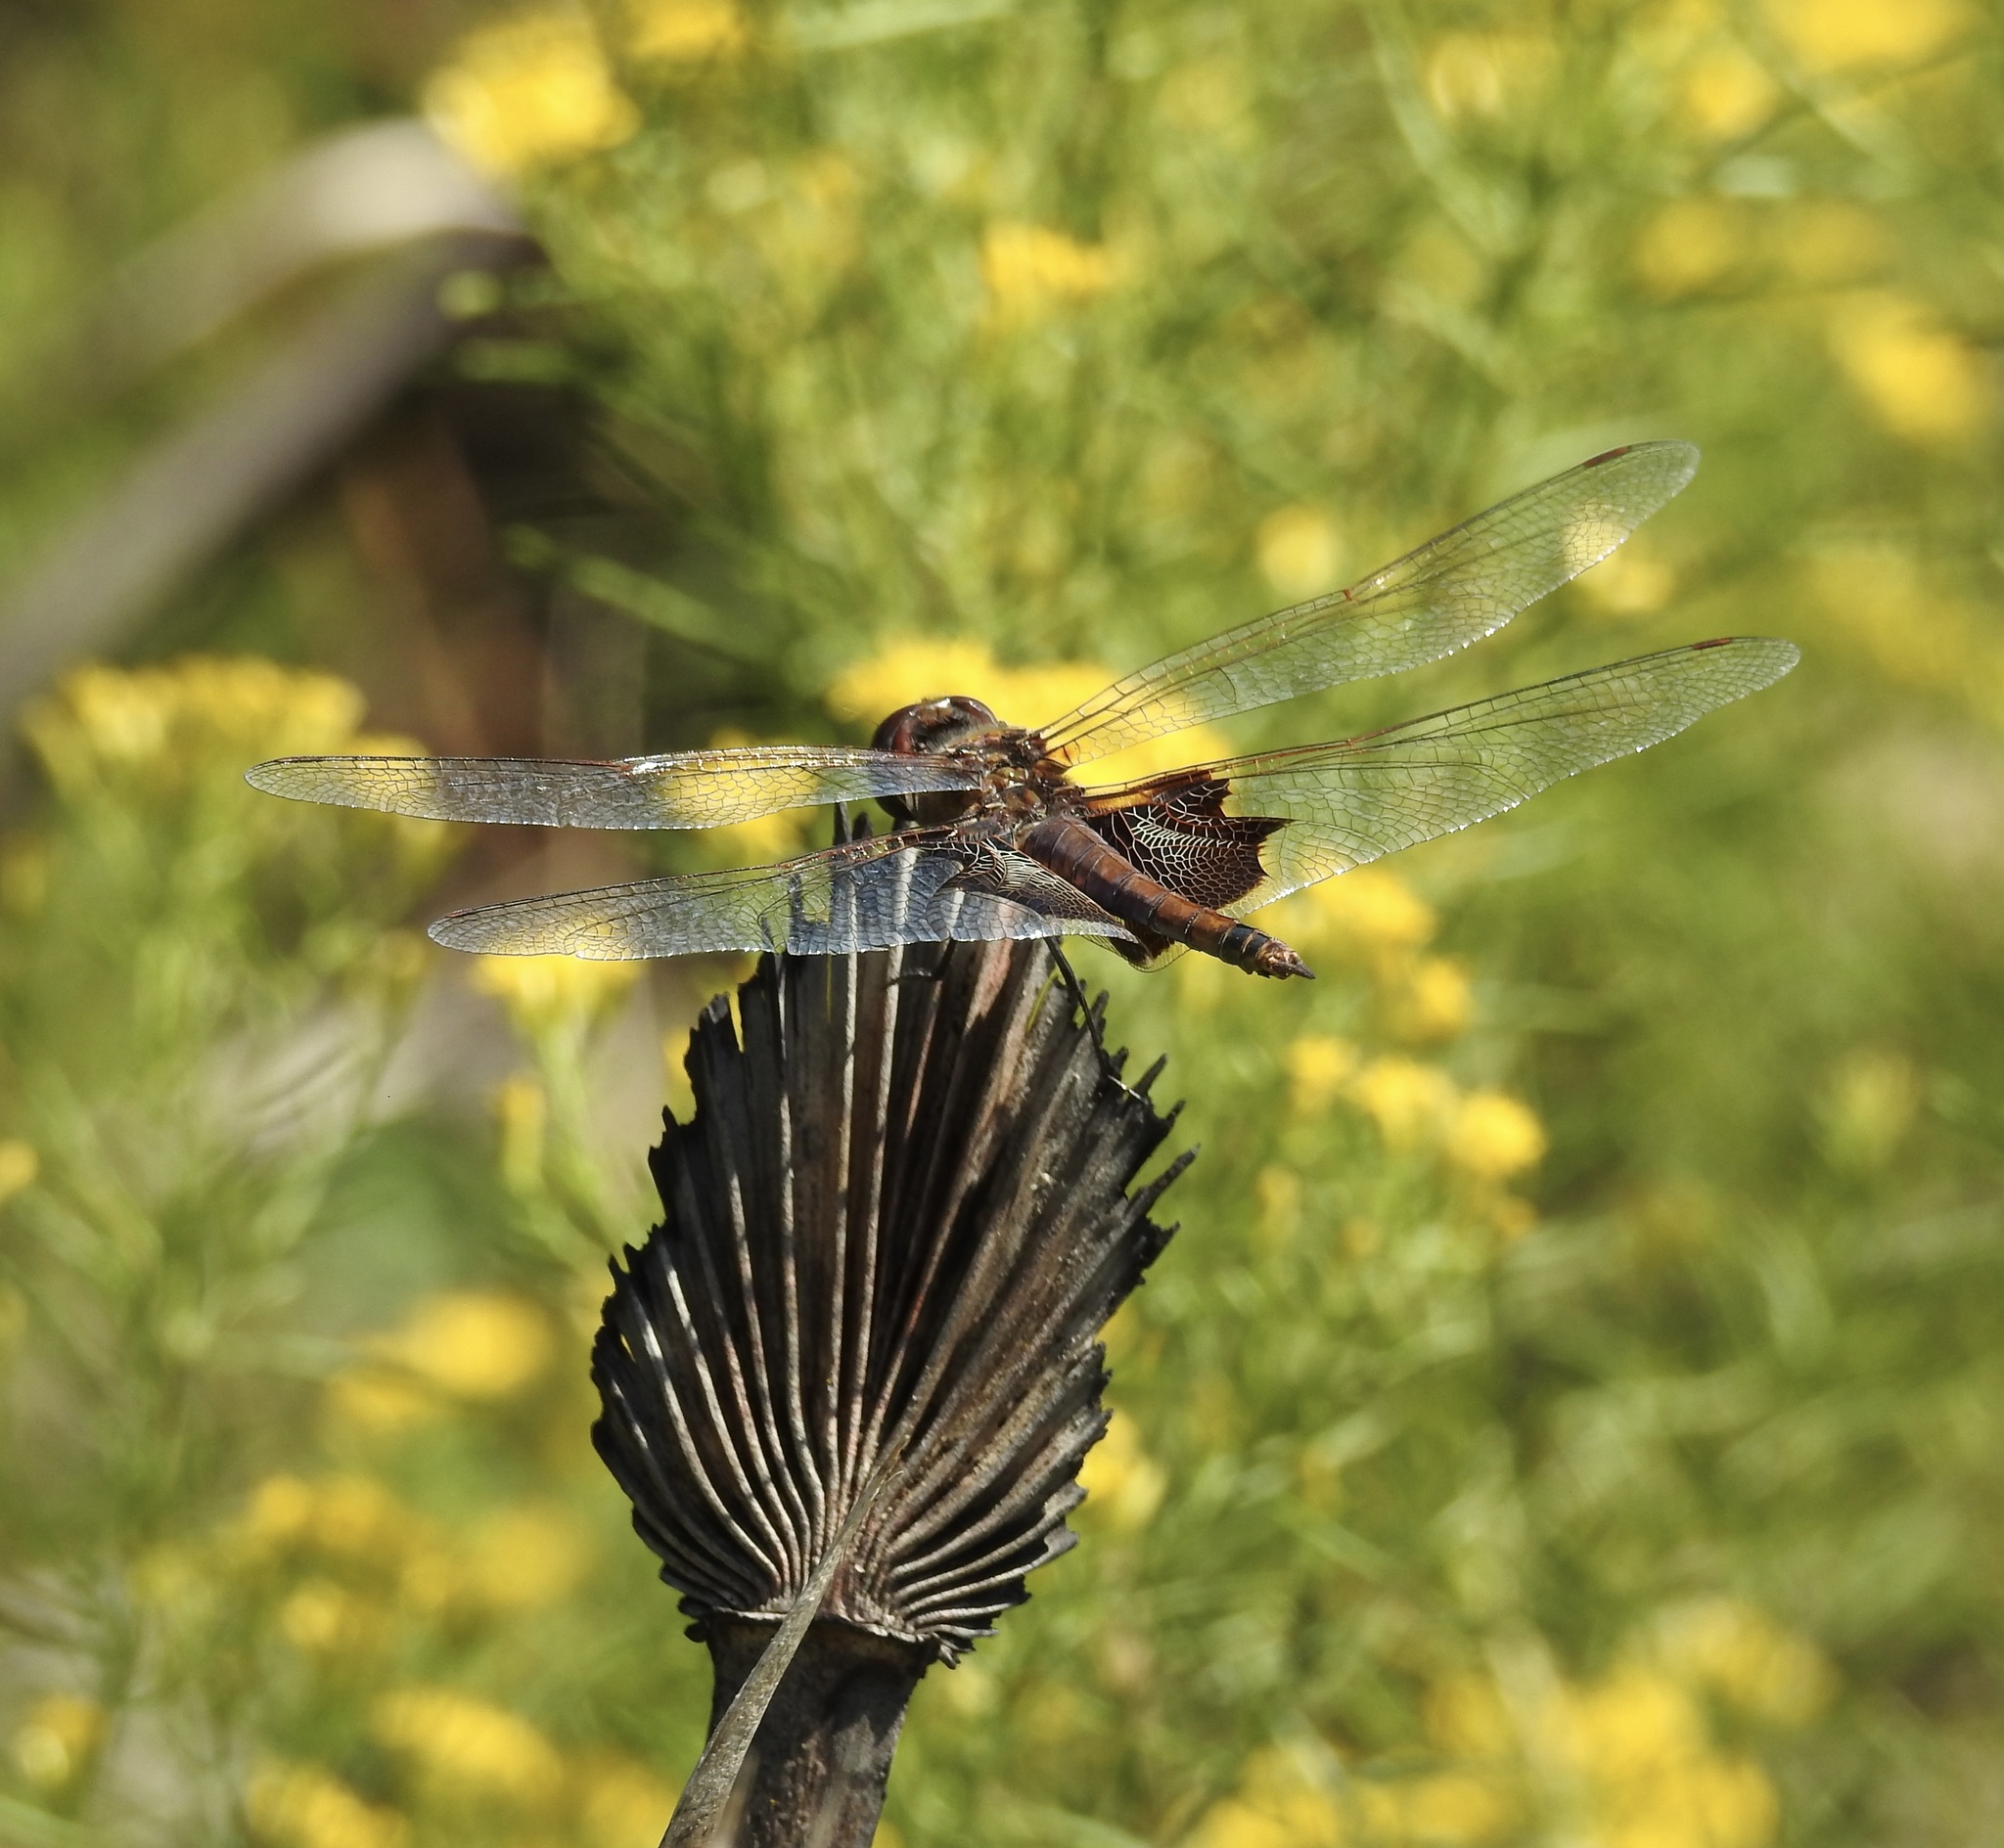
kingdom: Animalia
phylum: Arthropoda
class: Insecta
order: Odonata
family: Libellulidae
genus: Tramea
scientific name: Tramea carolina
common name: Carolina saddlebags
